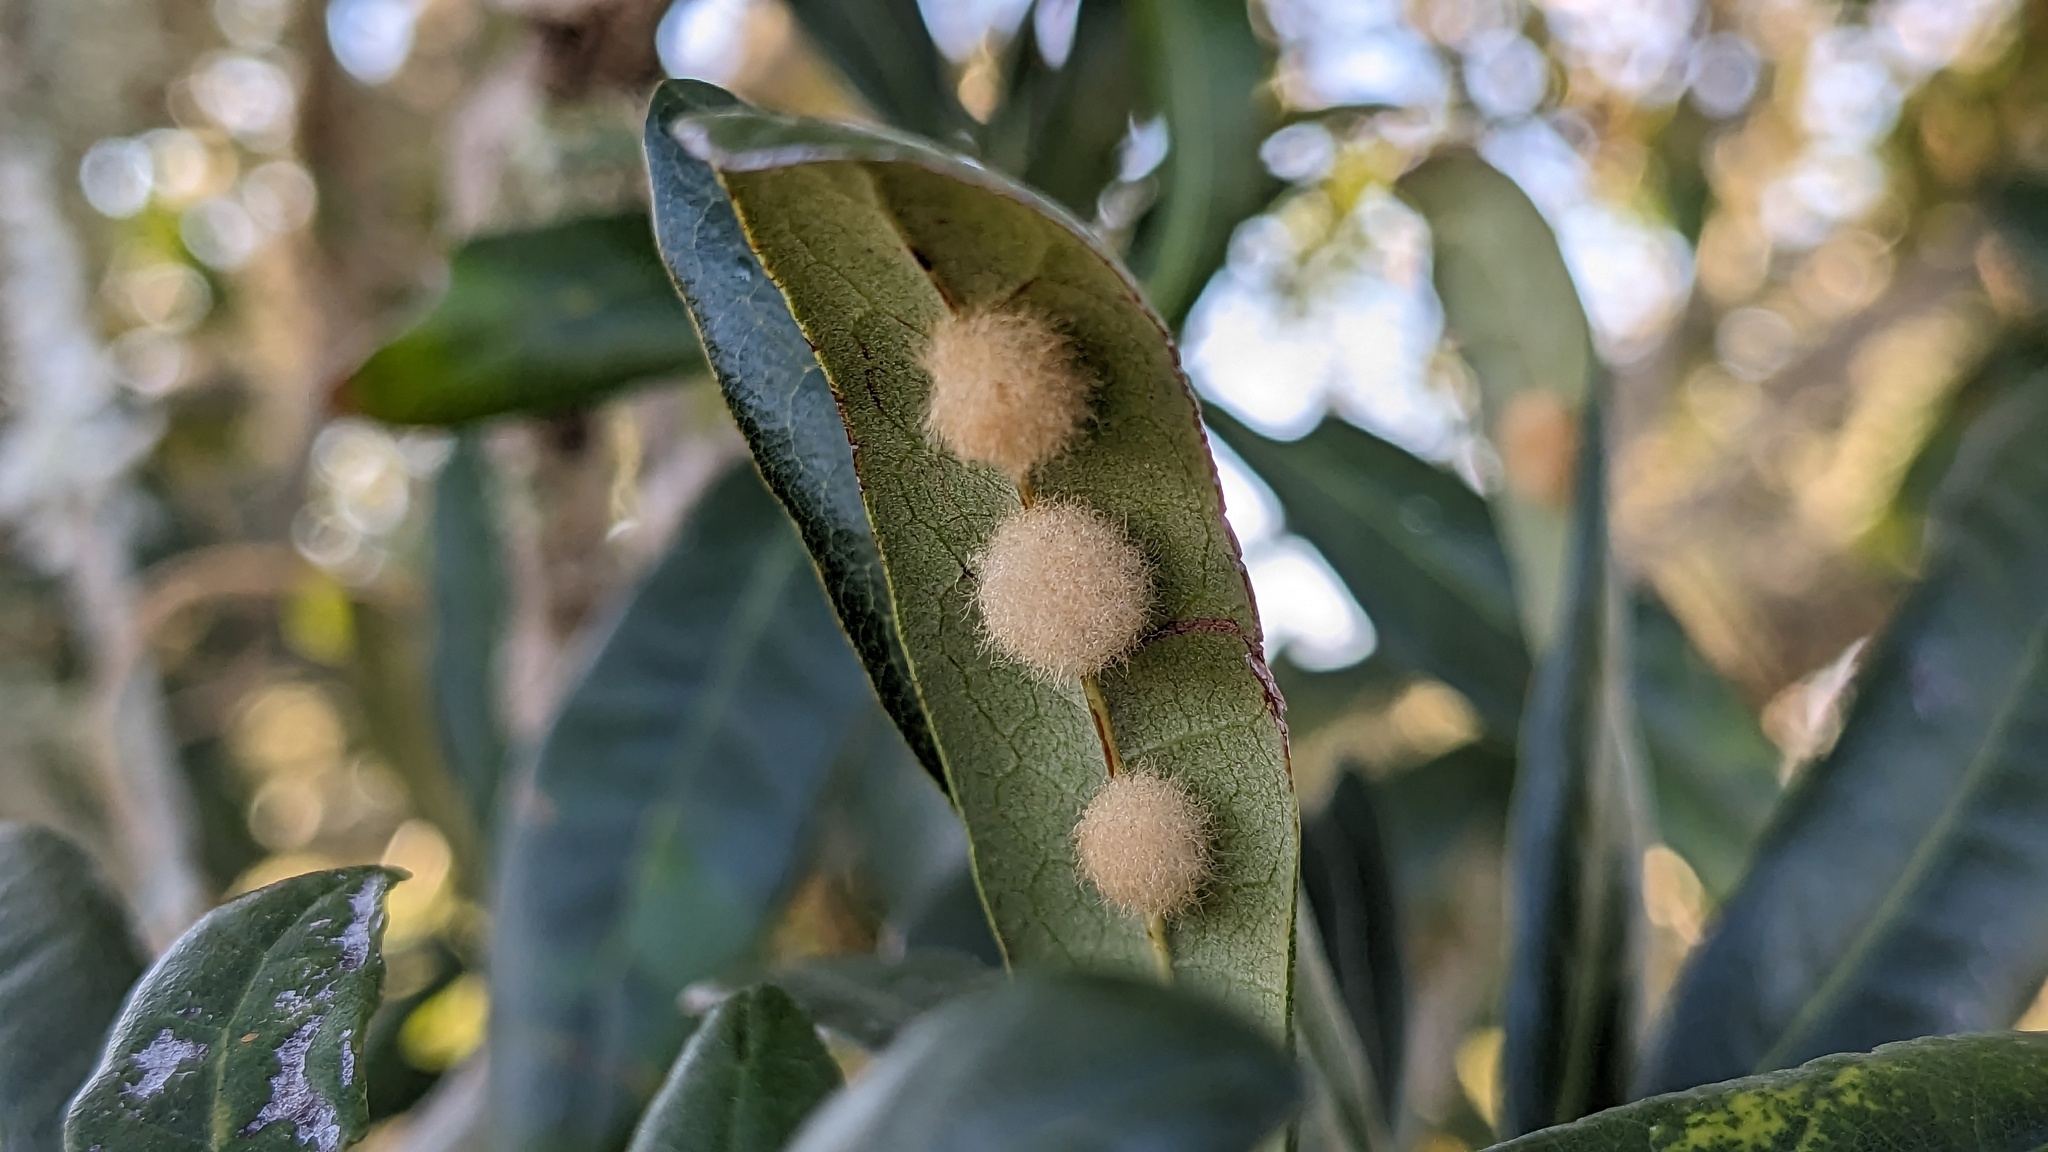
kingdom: Animalia
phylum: Arthropoda
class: Insecta
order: Hymenoptera
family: Cynipidae
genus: Andricus
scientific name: Andricus Druon quercuslanigerum
